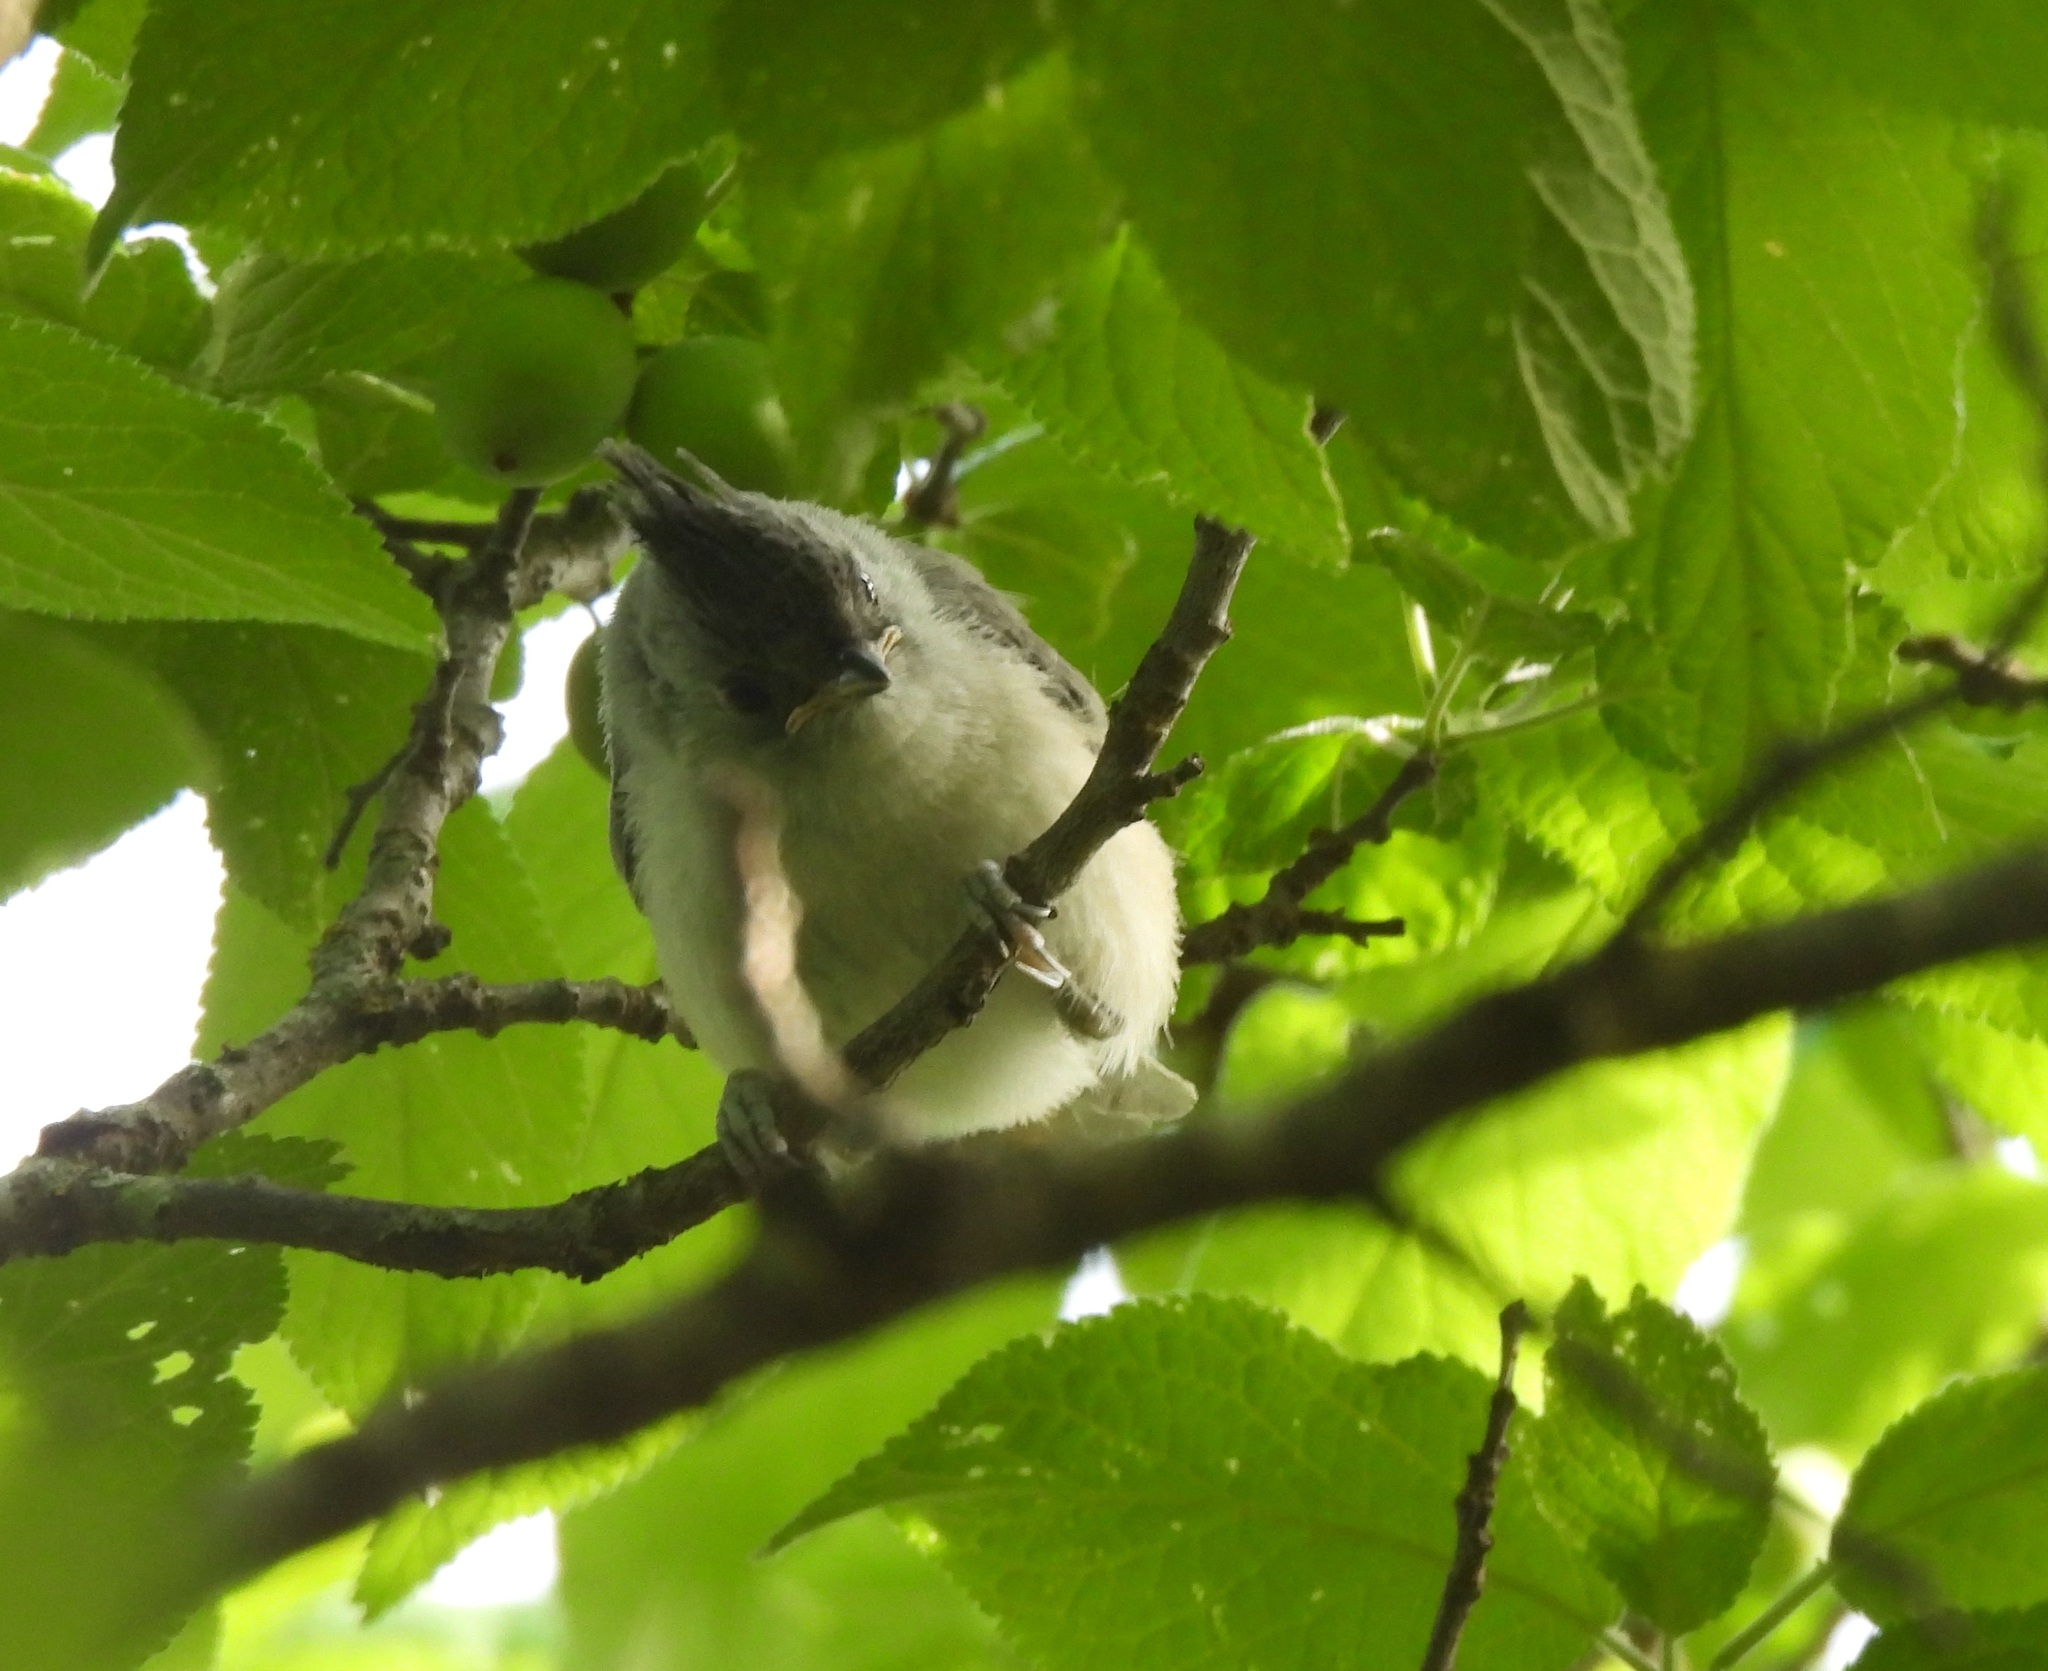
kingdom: Animalia
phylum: Chordata
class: Aves
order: Passeriformes
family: Paridae
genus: Baeolophus
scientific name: Baeolophus atricristatus
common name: Black-crested titmouse
